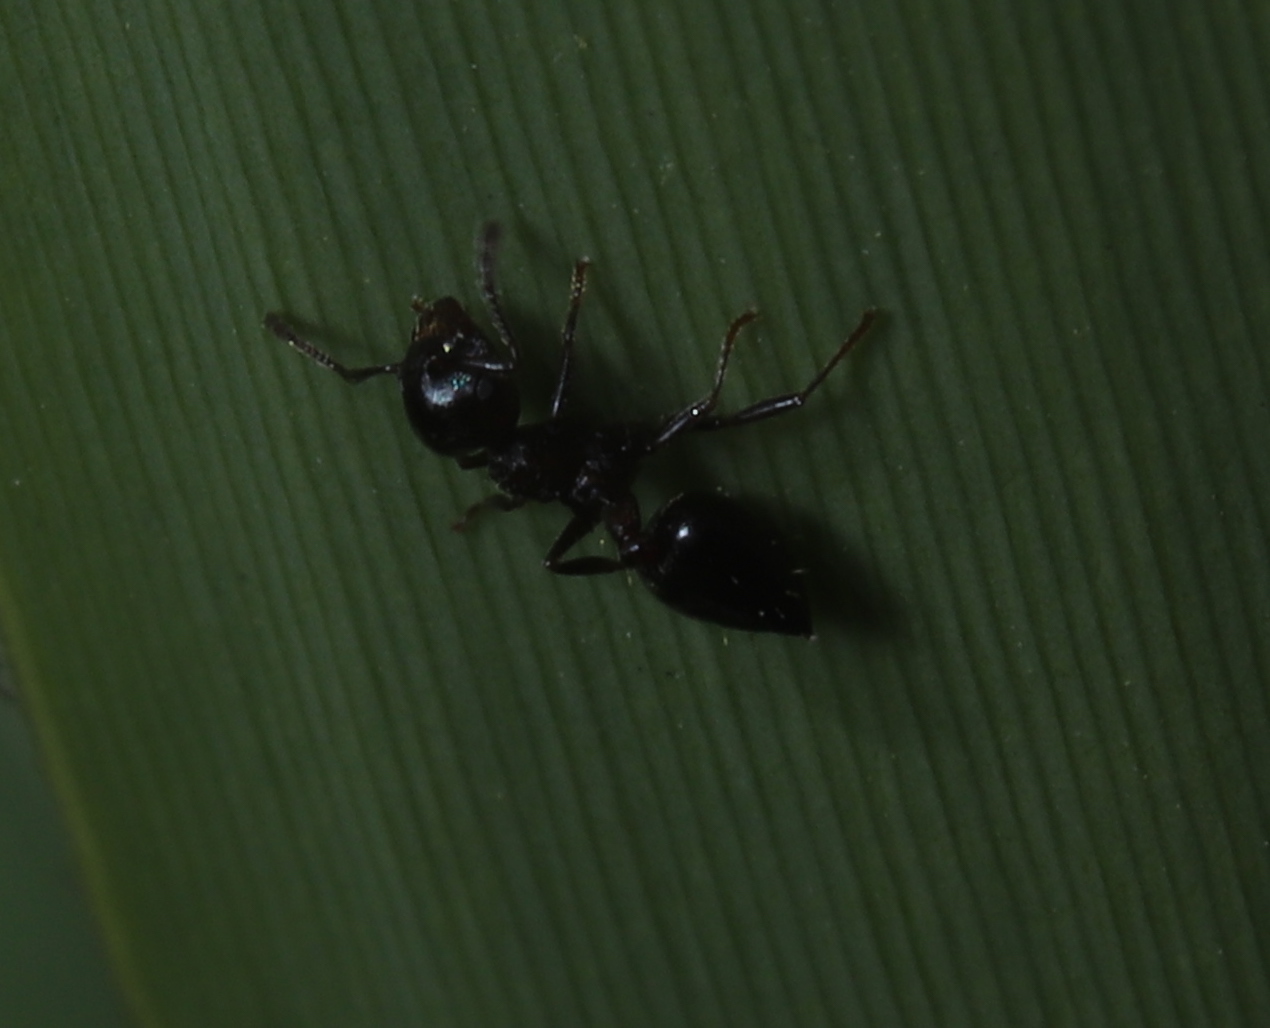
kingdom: Animalia
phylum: Arthropoda
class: Insecta
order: Hymenoptera
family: Formicidae
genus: Crematogaster
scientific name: Crematogaster
